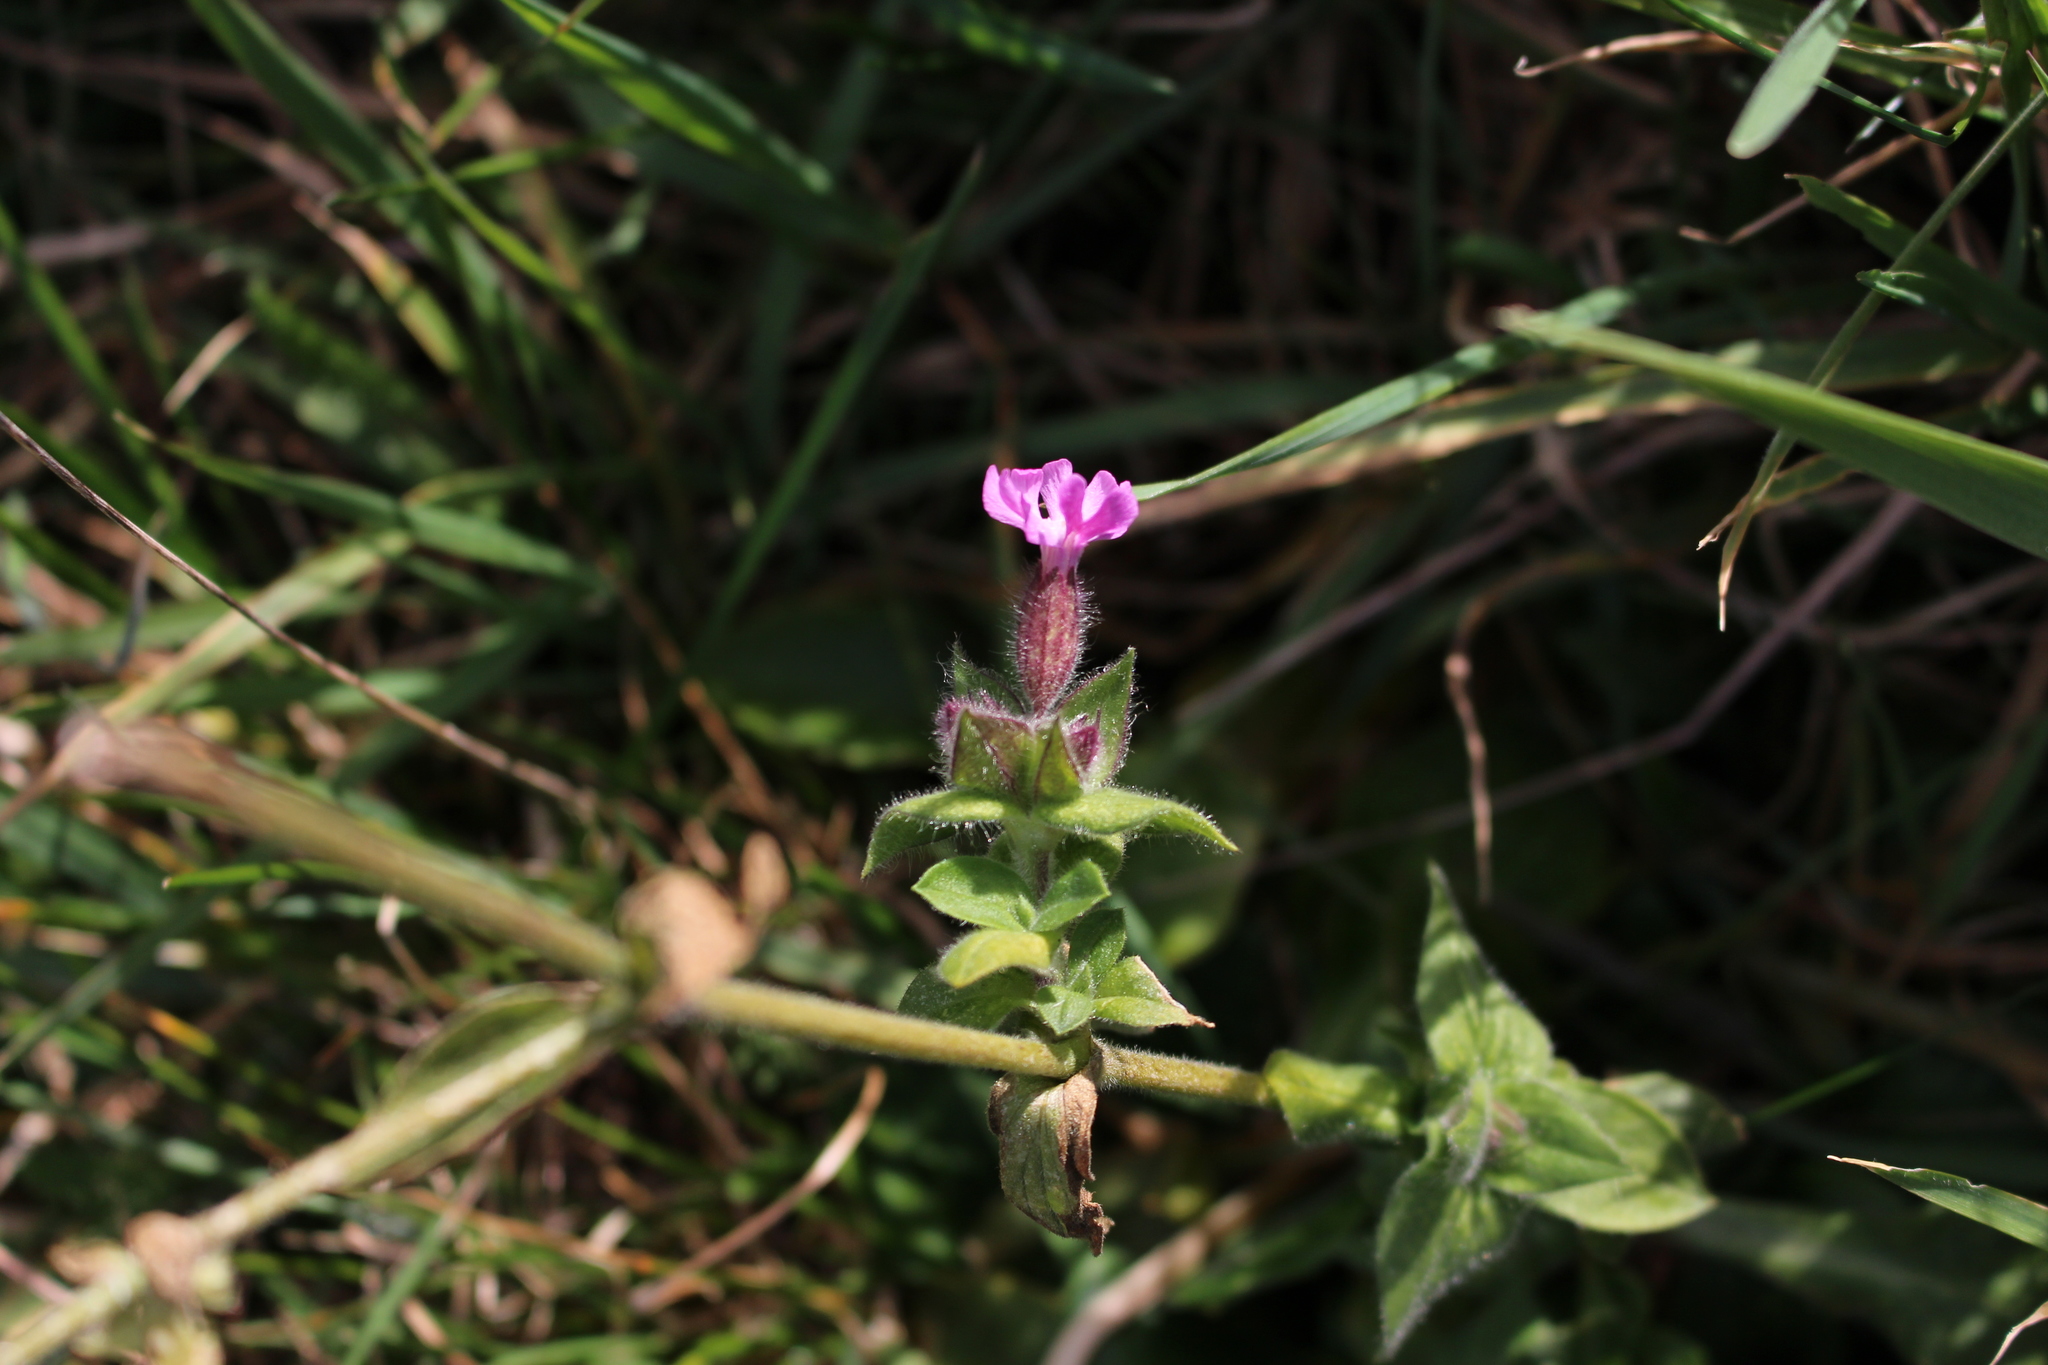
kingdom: Plantae
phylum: Tracheophyta
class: Magnoliopsida
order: Caryophyllales
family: Caryophyllaceae
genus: Silene
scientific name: Silene dioica
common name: Red campion
